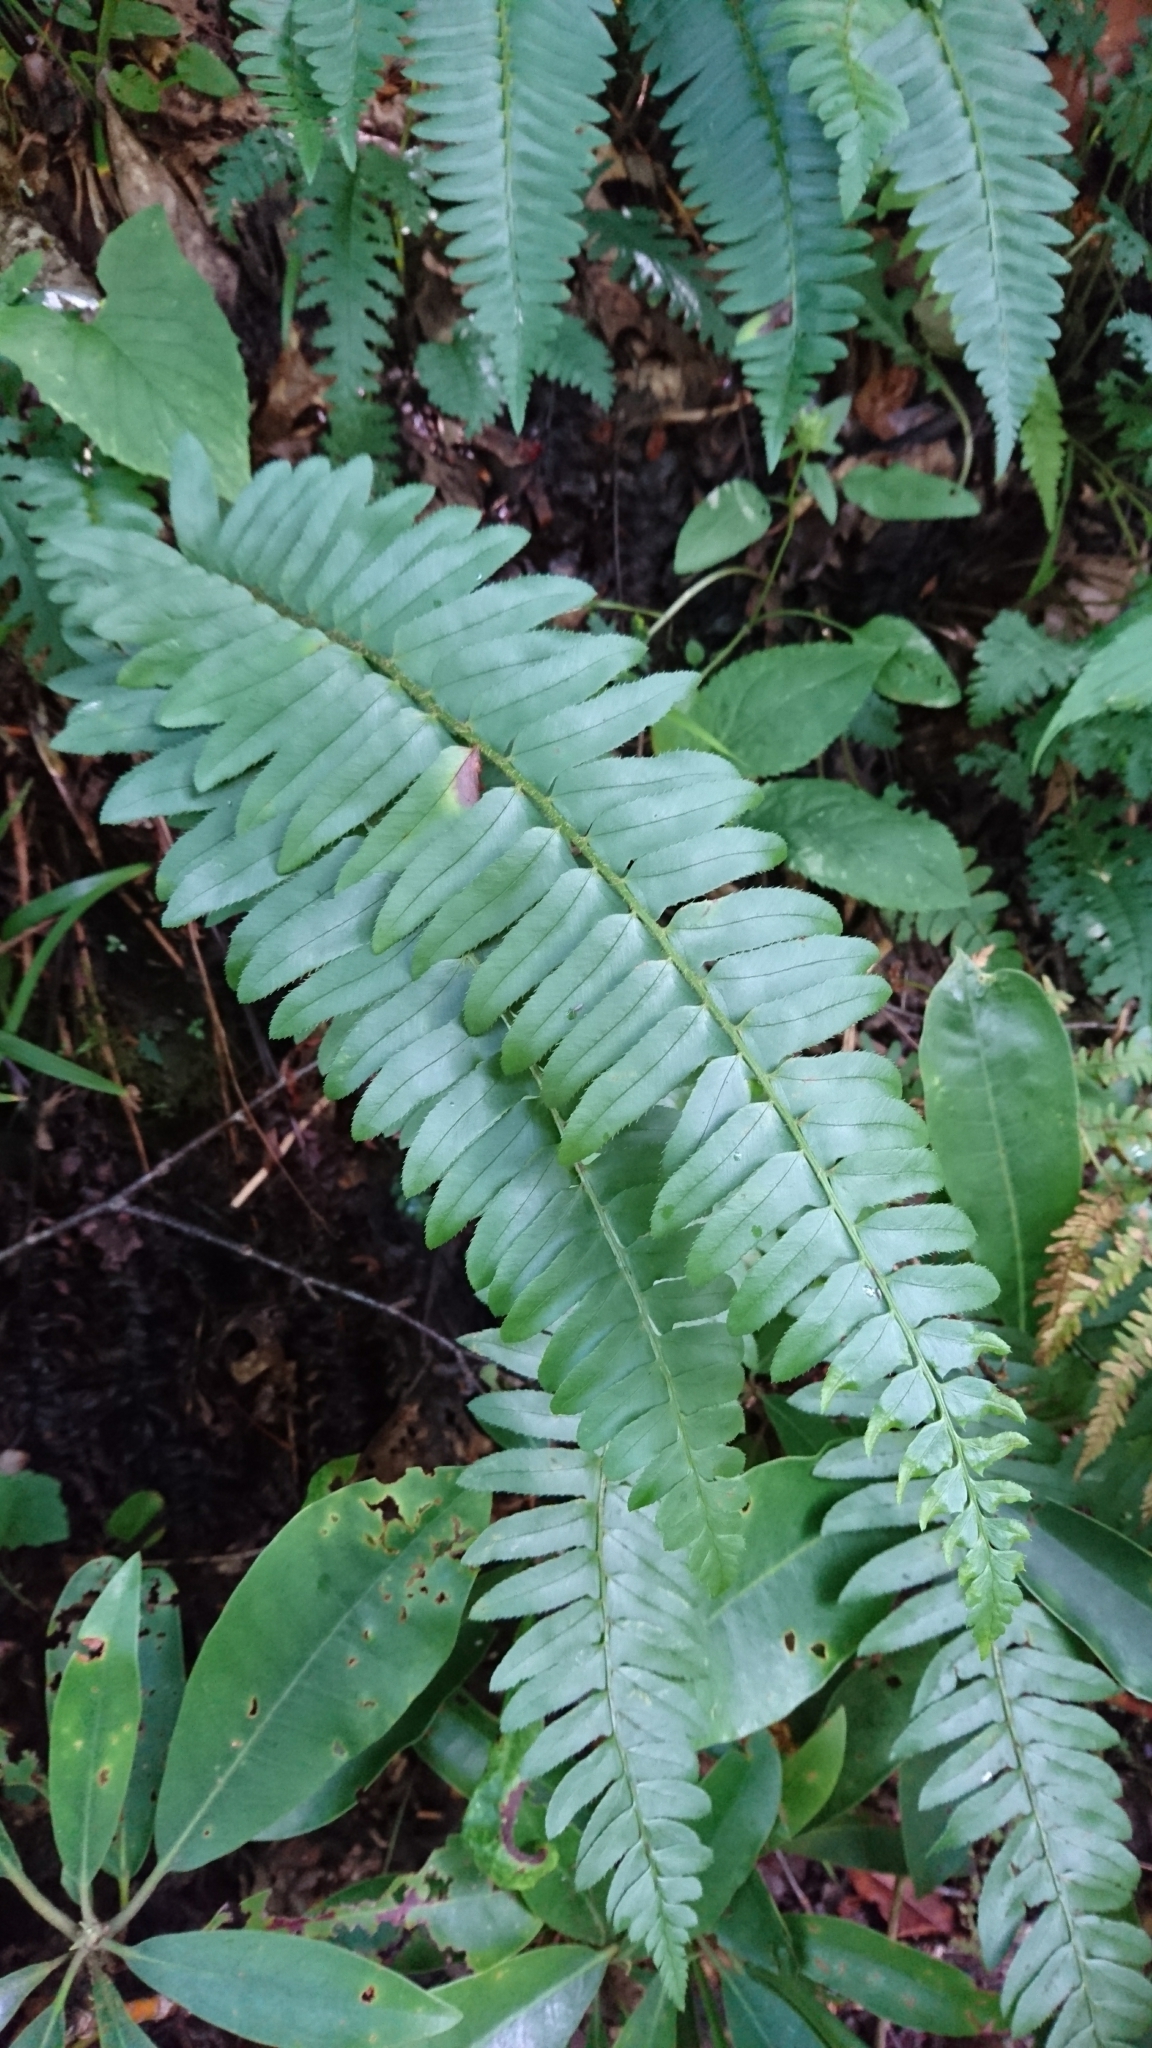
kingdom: Plantae
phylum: Tracheophyta
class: Polypodiopsida
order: Polypodiales
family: Dryopteridaceae
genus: Polystichum
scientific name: Polystichum acrostichoides
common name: Christmas fern
